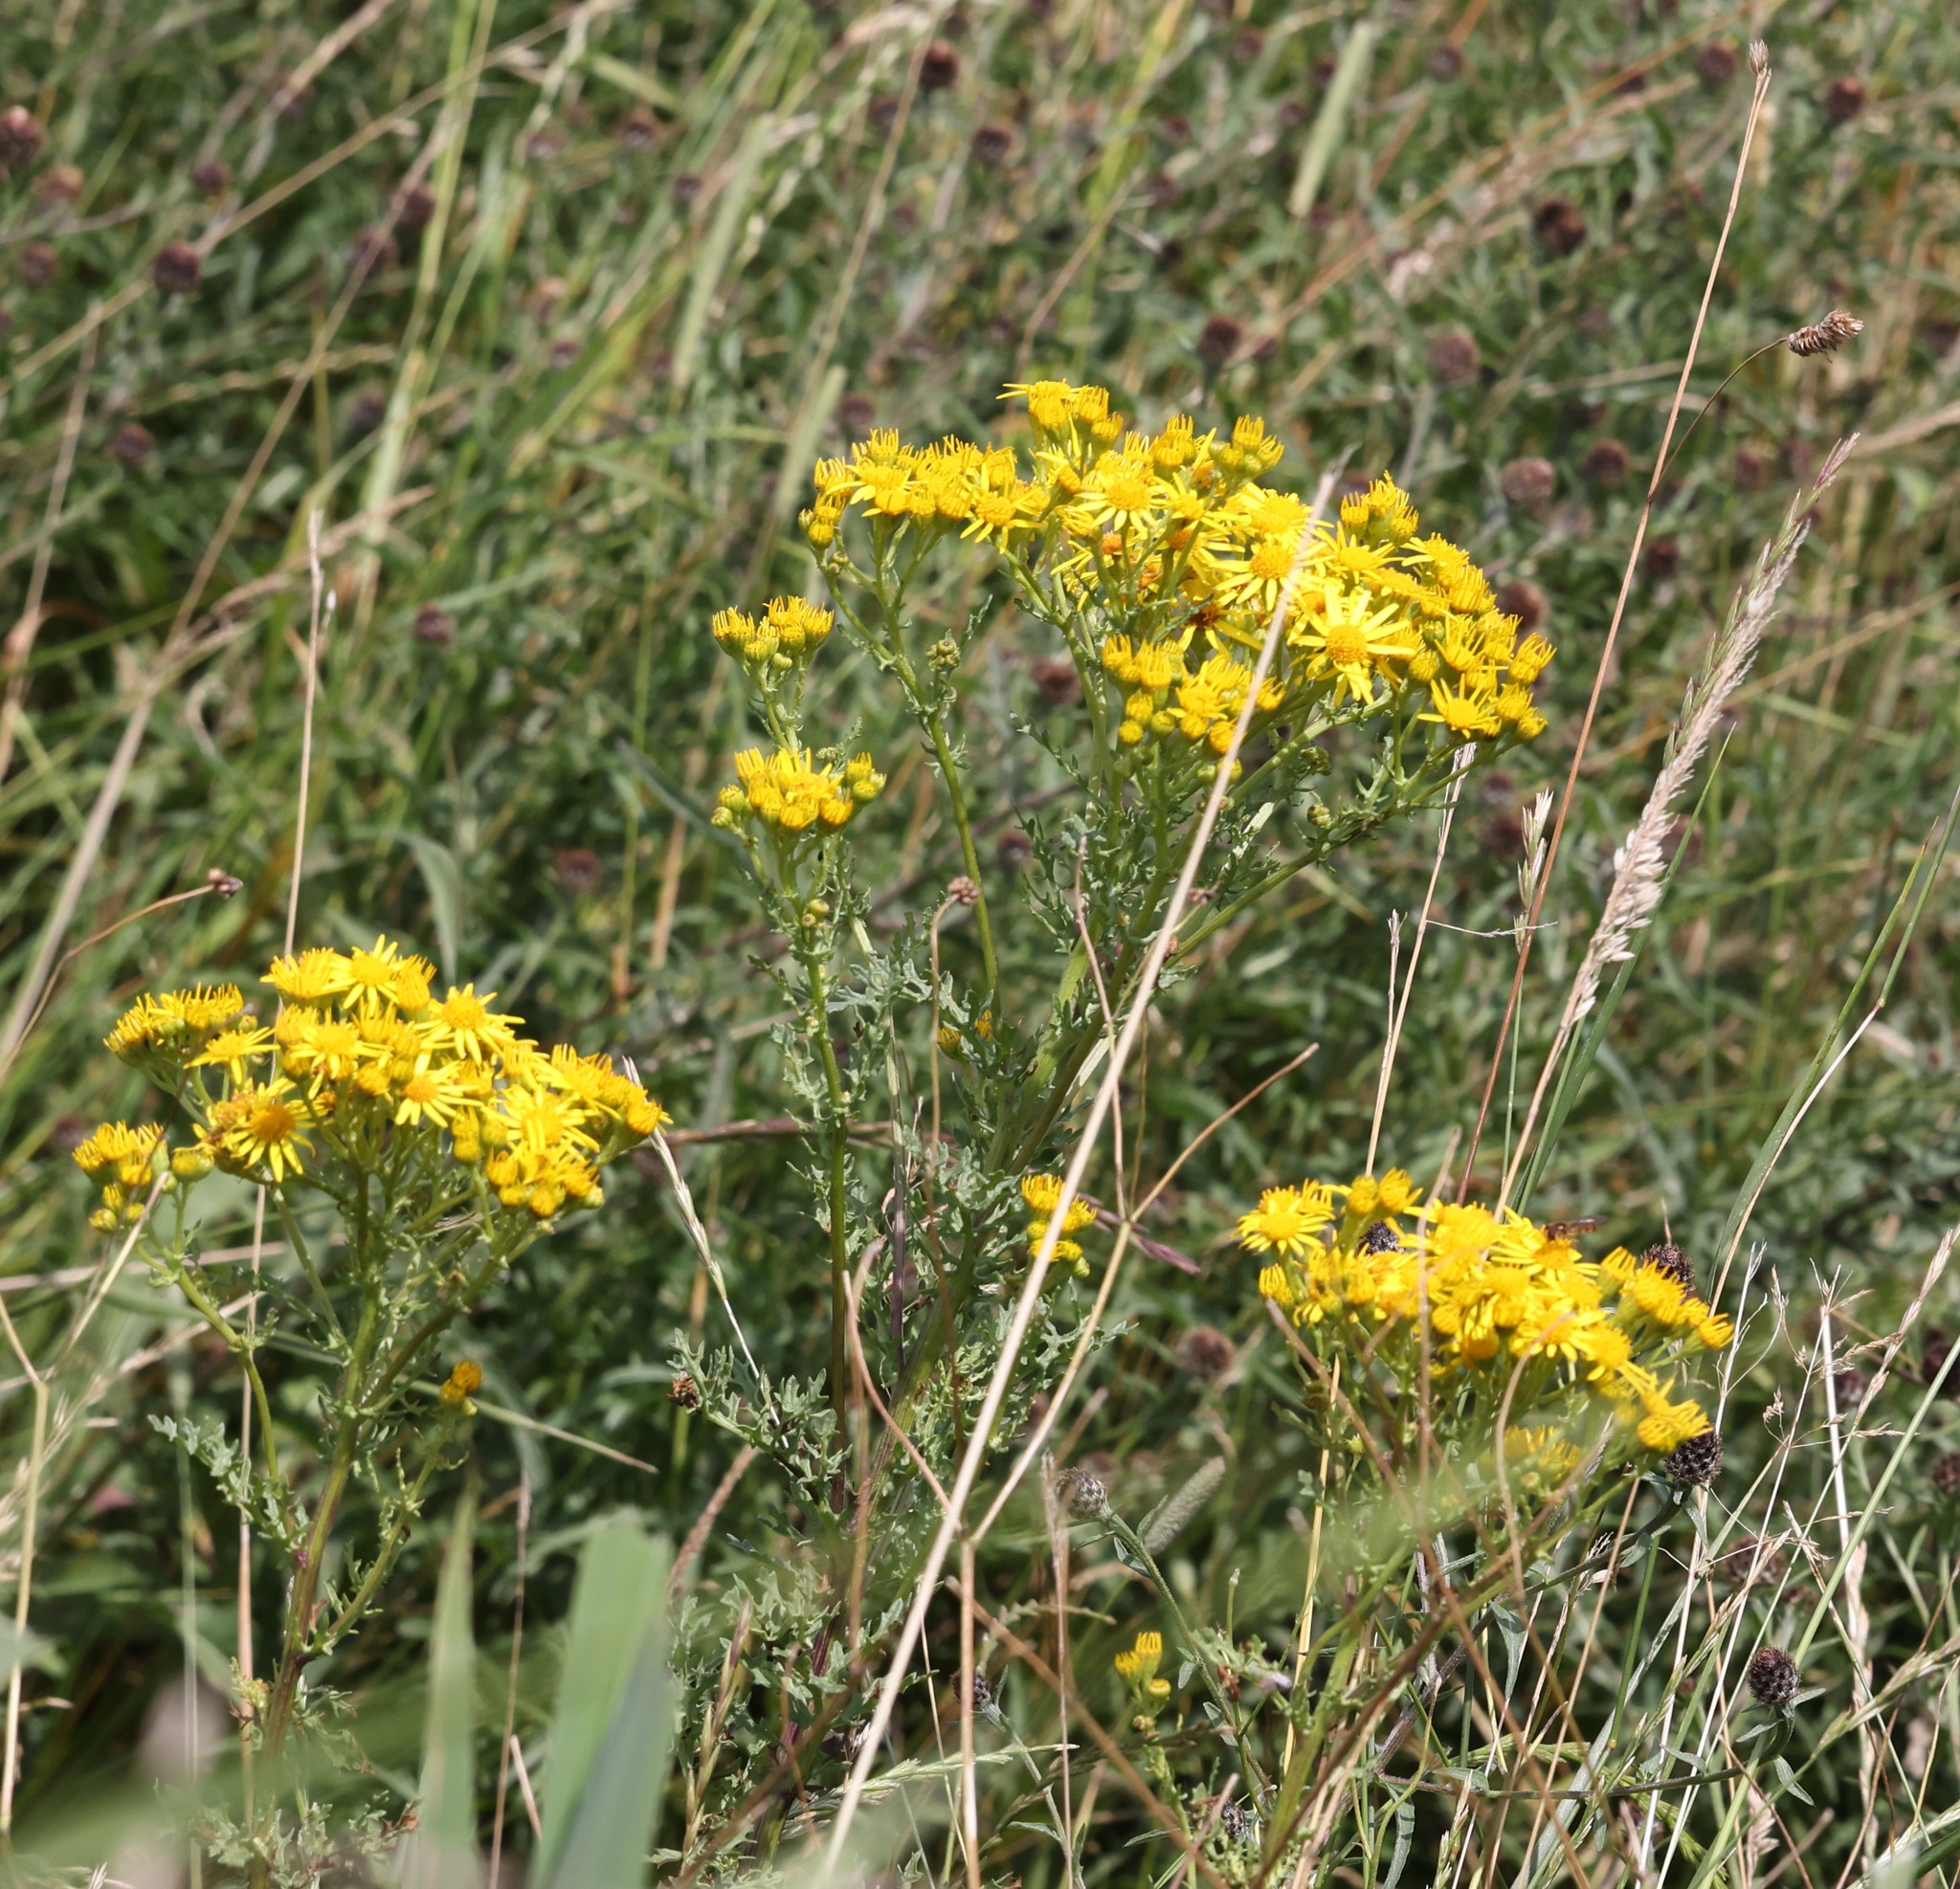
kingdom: Plantae
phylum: Tracheophyta
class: Magnoliopsida
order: Asterales
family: Asteraceae
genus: Jacobaea
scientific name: Jacobaea vulgaris
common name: Stinking willie
